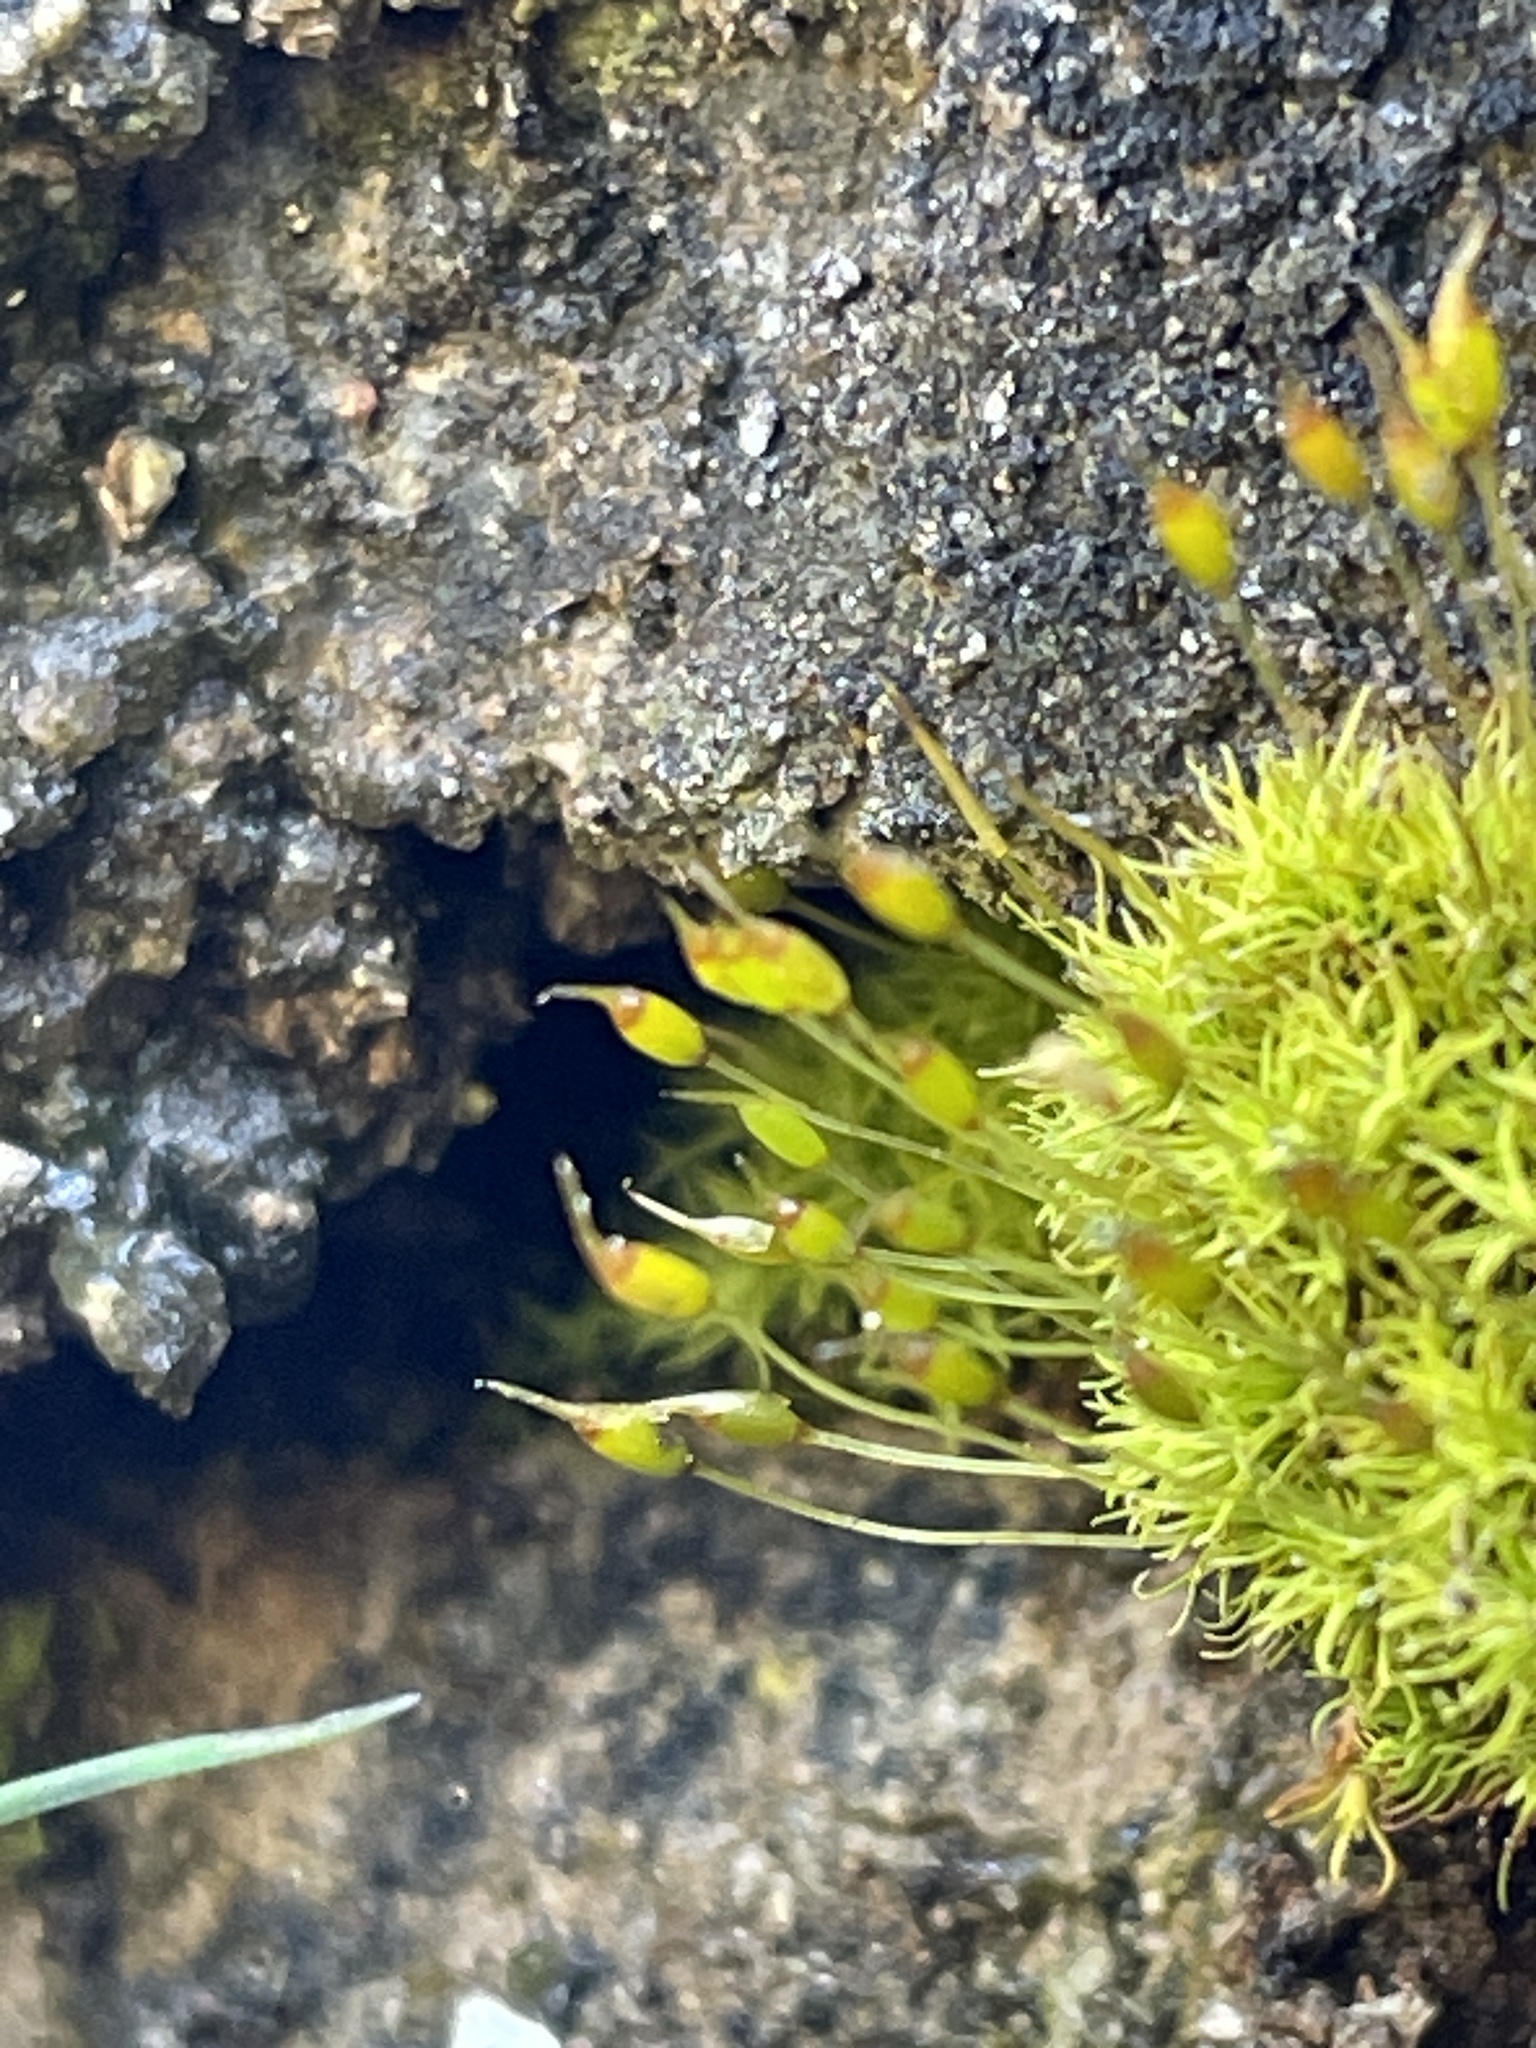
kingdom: Plantae
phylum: Bryophyta
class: Bryopsida
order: Pottiales
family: Pottiaceae
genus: Weissia
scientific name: Weissia controversa
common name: Green-tufted stubble moss
